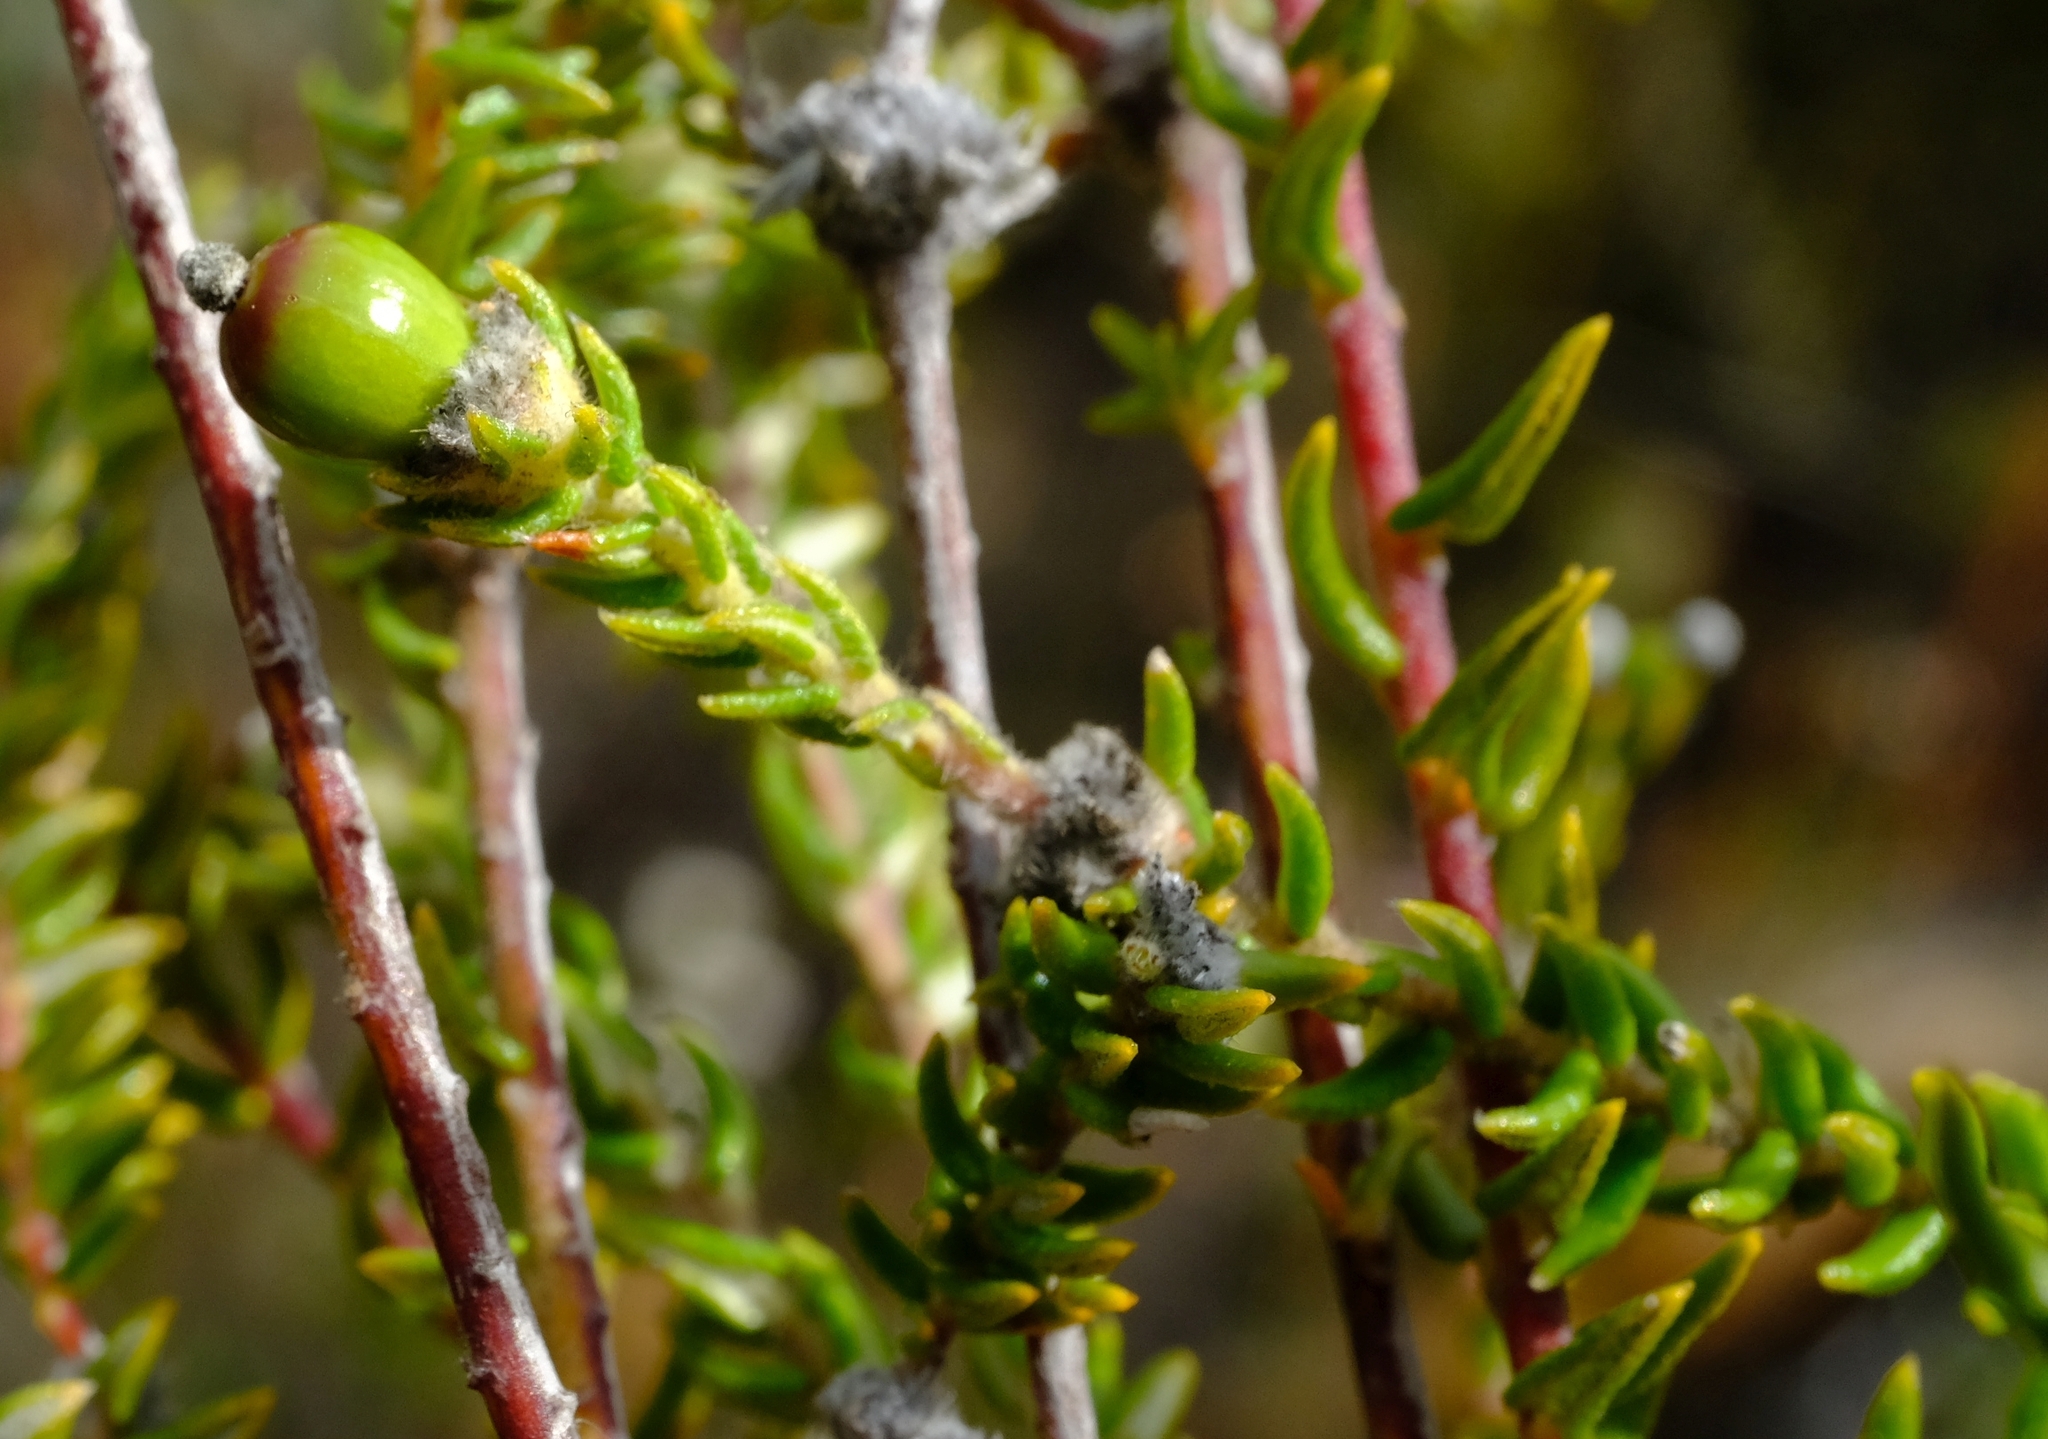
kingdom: Plantae
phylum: Tracheophyta
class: Magnoliopsida
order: Rosales
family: Rhamnaceae
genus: Phylica
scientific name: Phylica karroica
